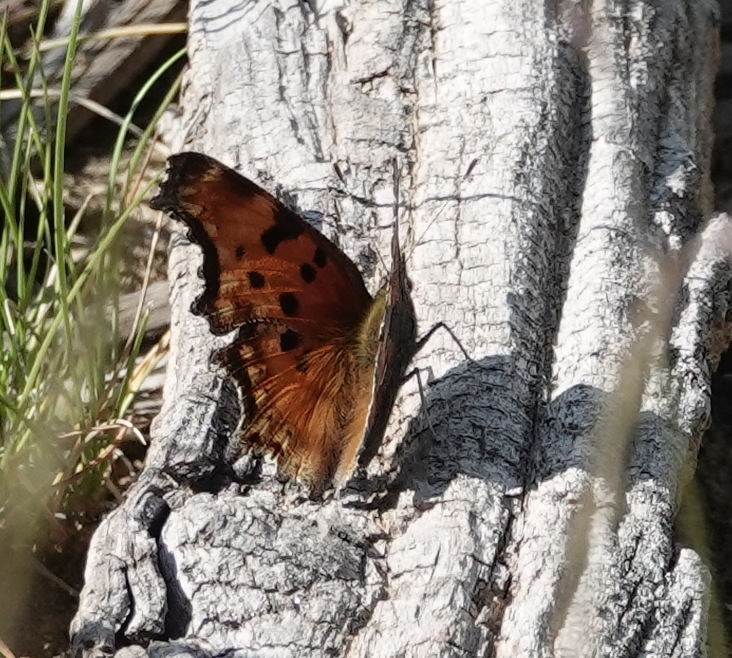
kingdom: Animalia
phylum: Arthropoda
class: Insecta
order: Lepidoptera
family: Nymphalidae
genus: Polygonia
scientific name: Polygonia gracilis
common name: Hoary comma
